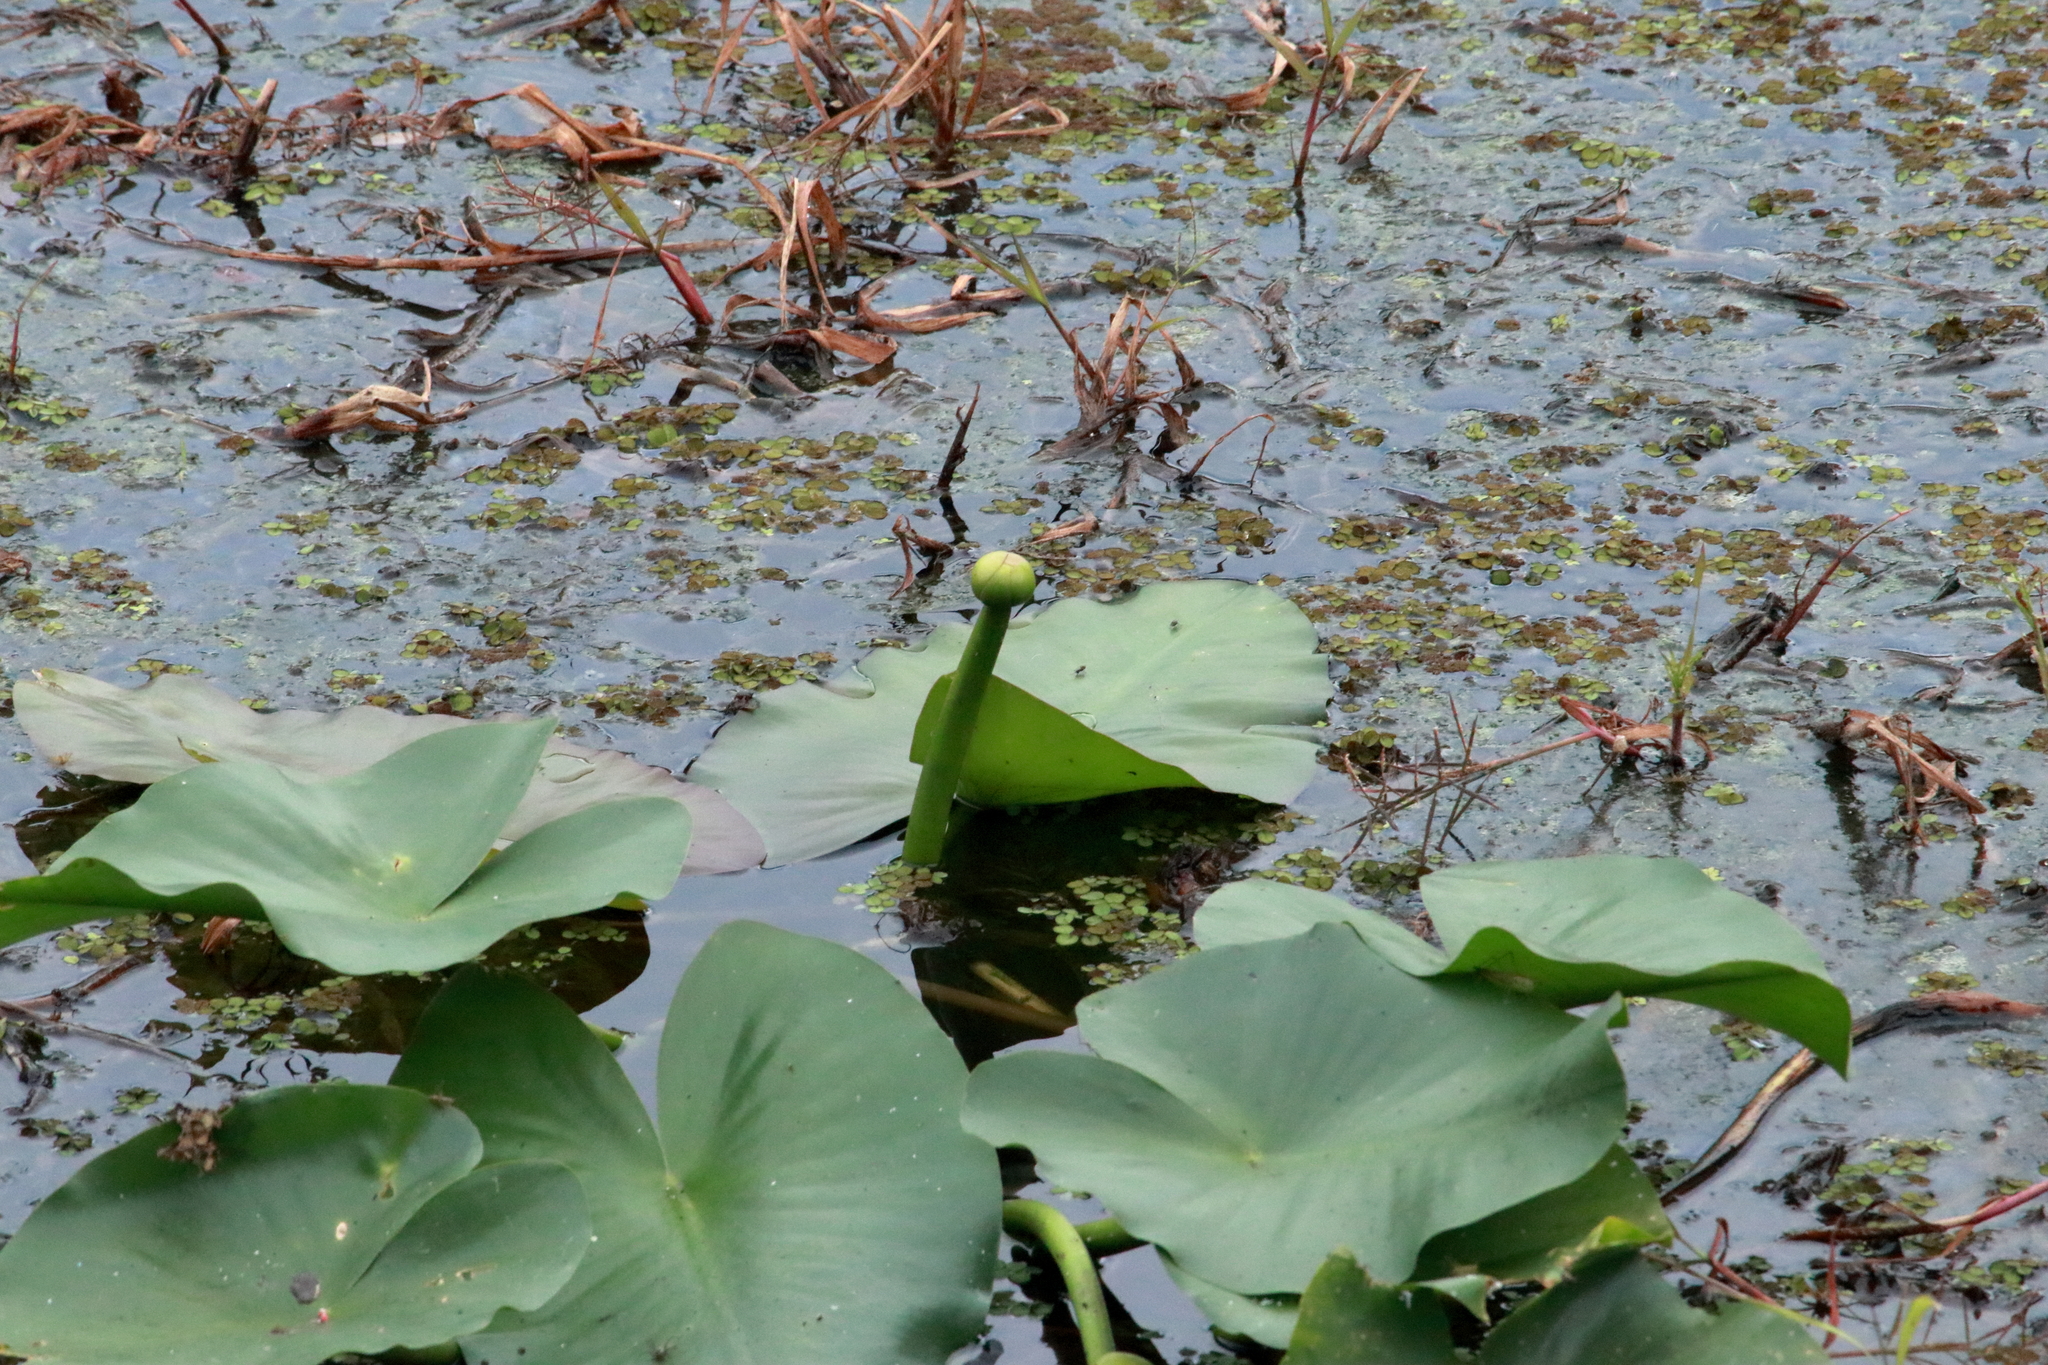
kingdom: Plantae
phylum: Tracheophyta
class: Magnoliopsida
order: Nymphaeales
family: Nymphaeaceae
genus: Nuphar
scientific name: Nuphar advena
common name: Spatter-dock
